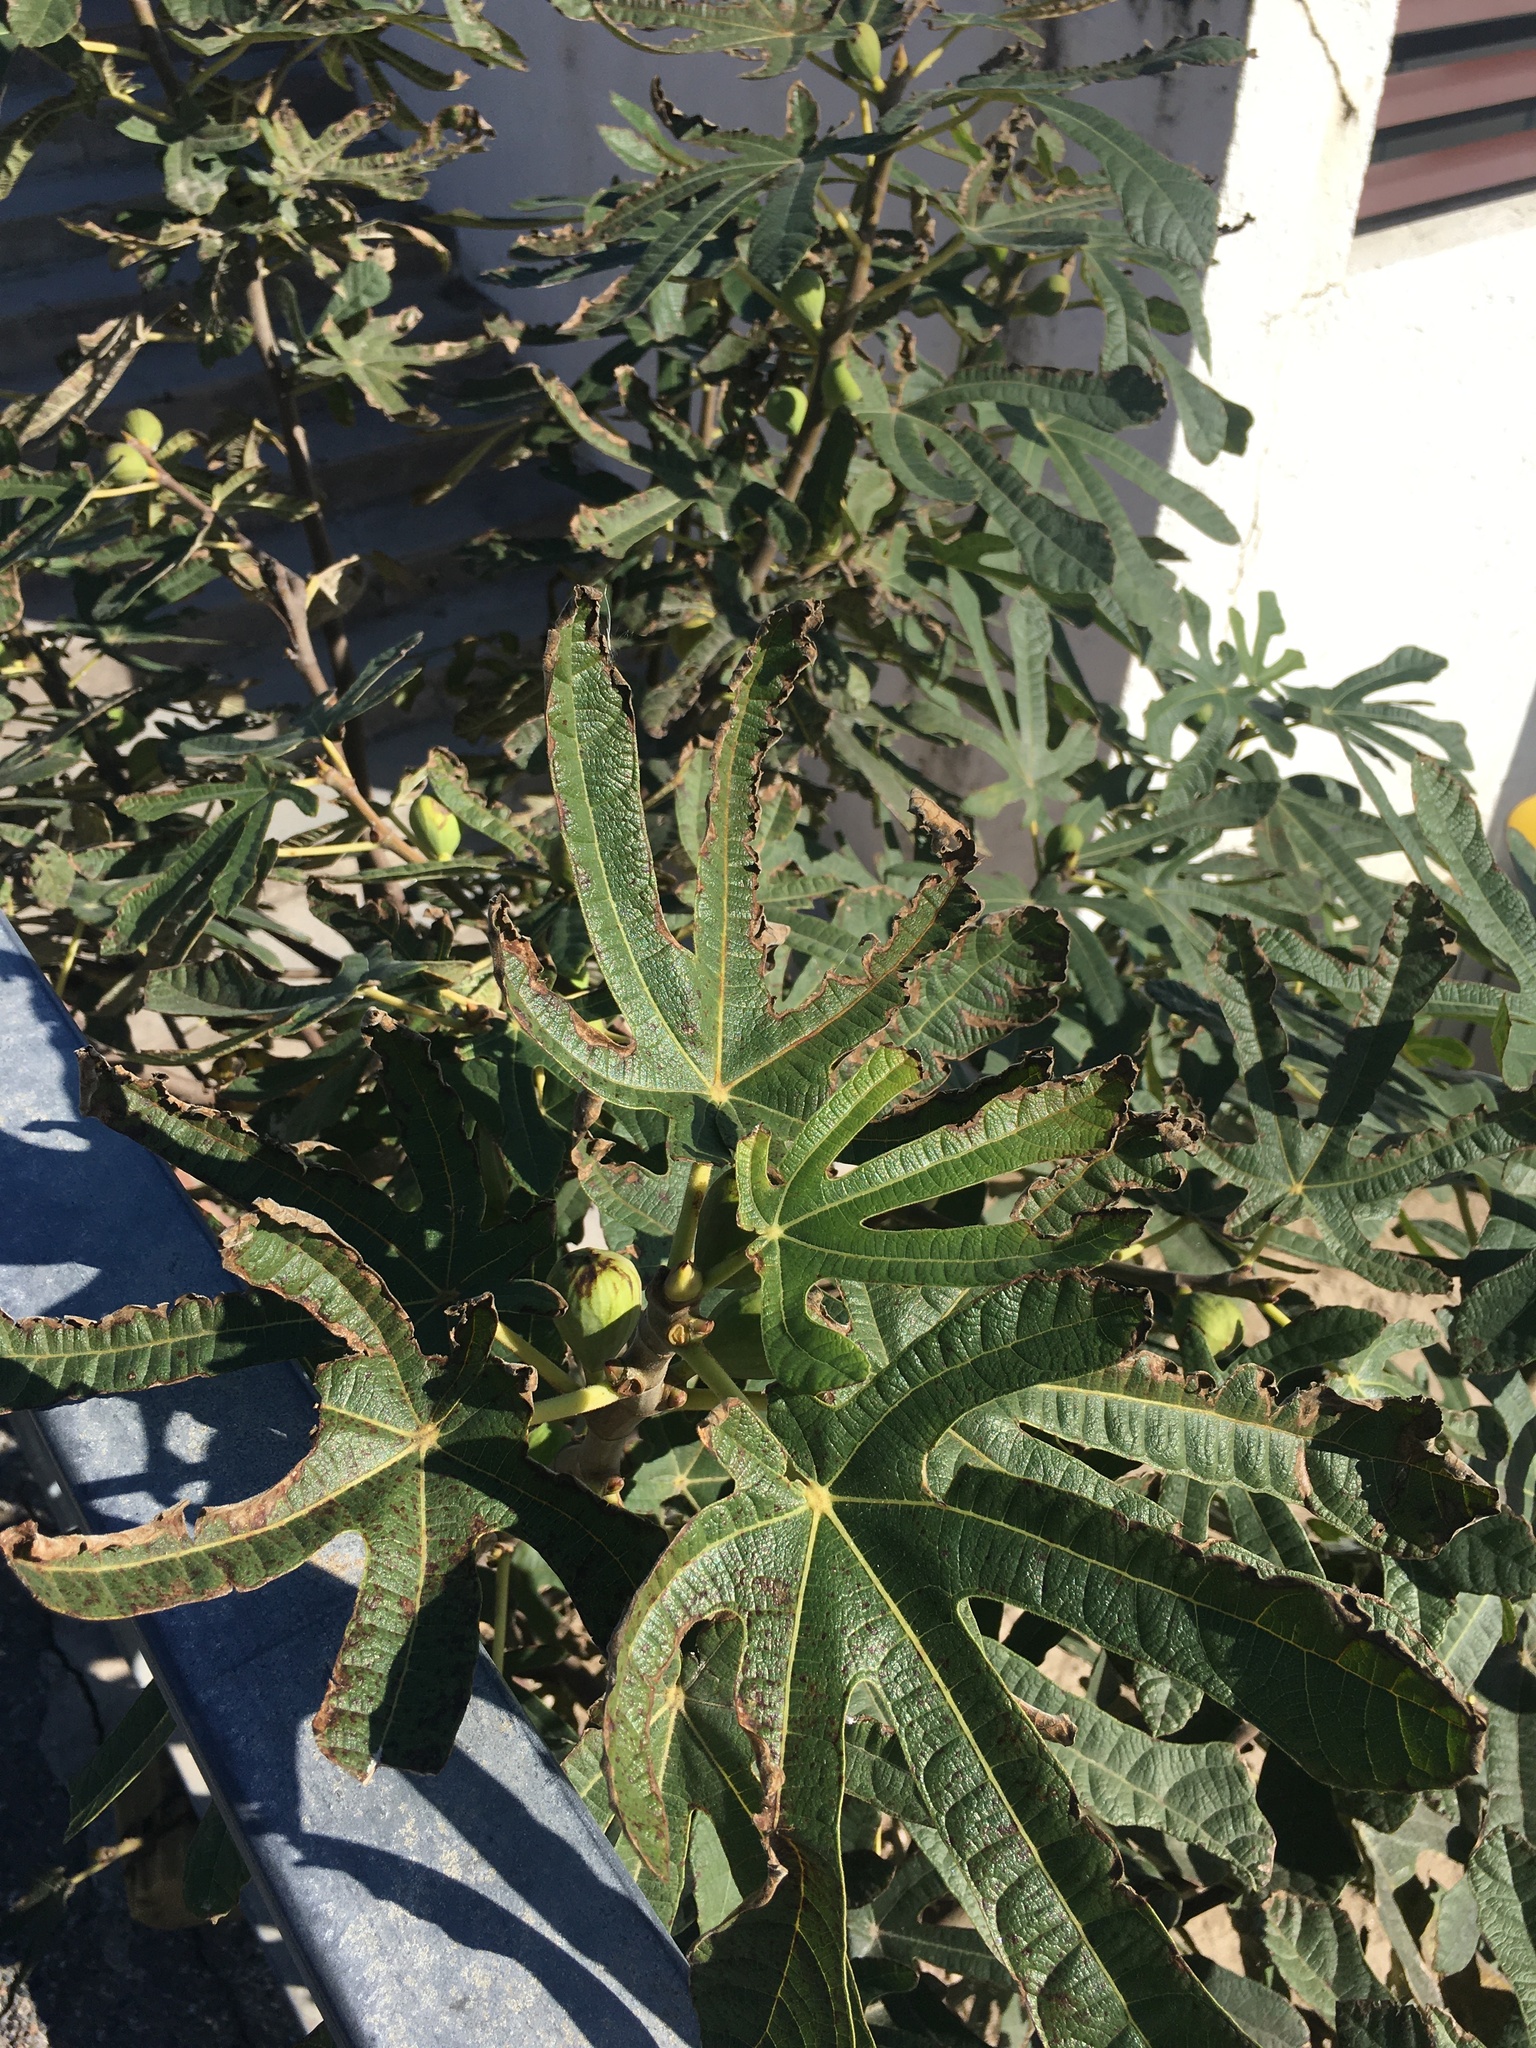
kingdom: Plantae
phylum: Tracheophyta
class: Magnoliopsida
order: Rosales
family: Moraceae
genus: Ficus
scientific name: Ficus carica
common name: Fig
